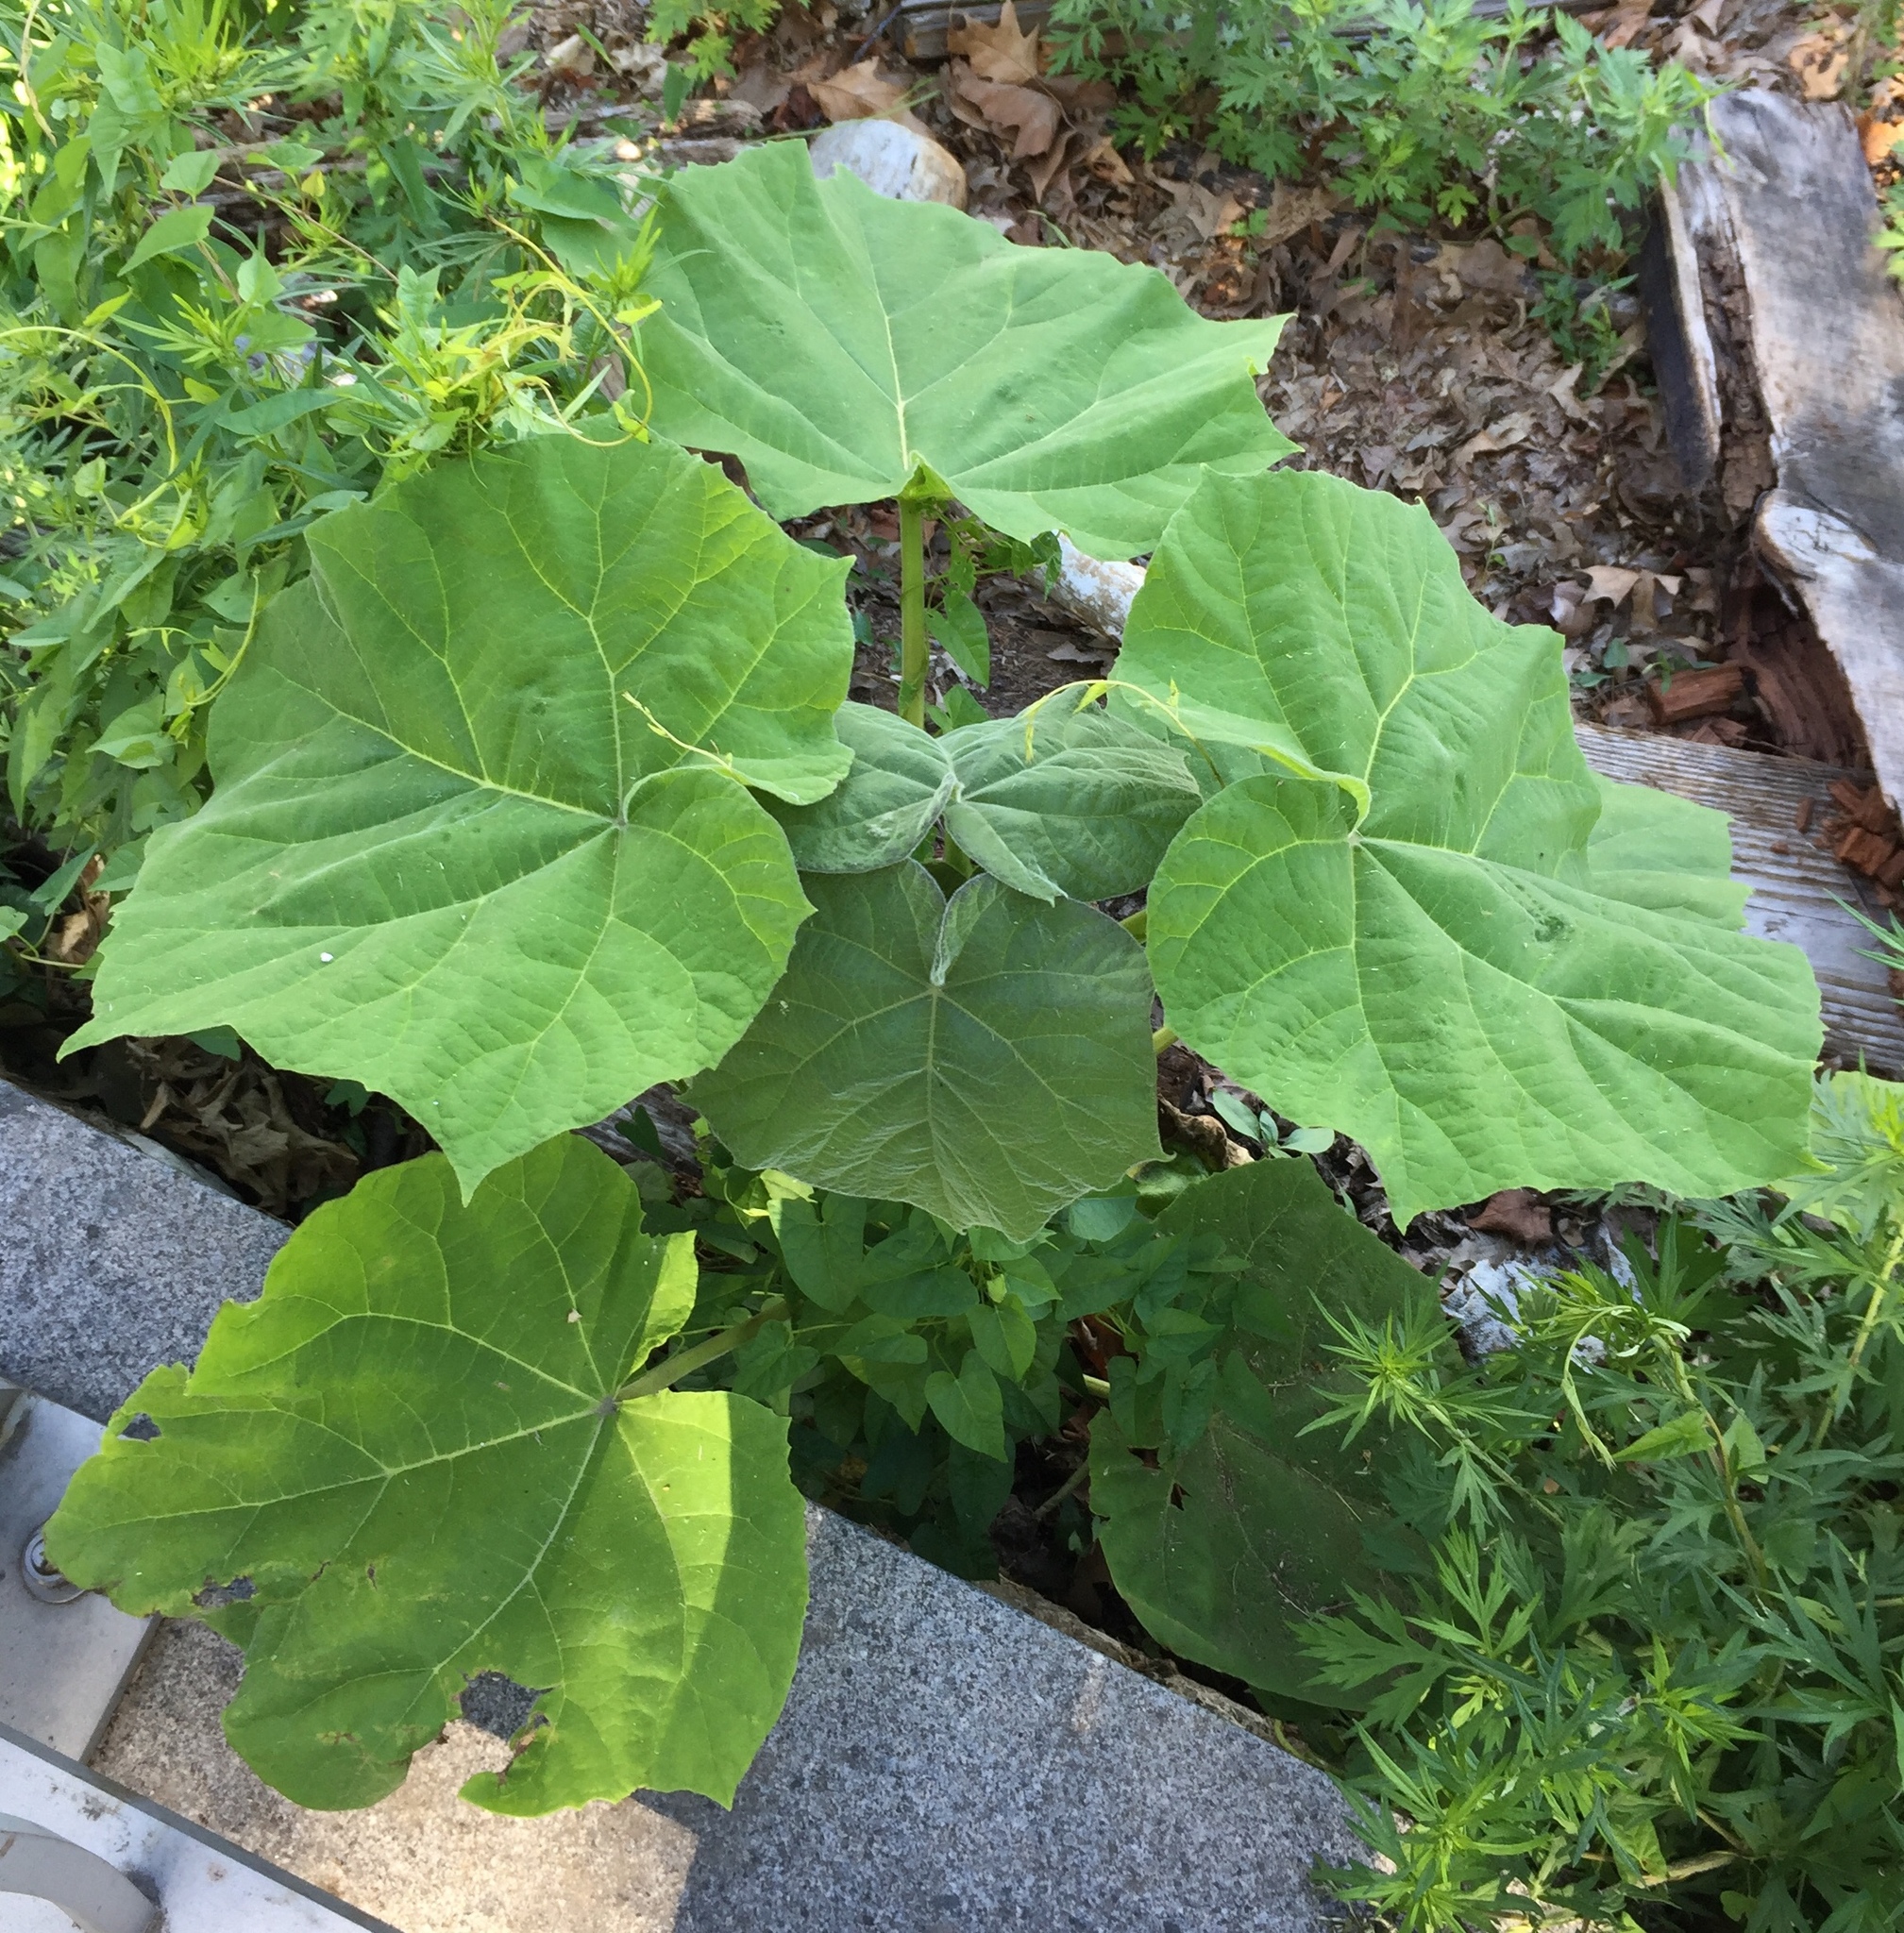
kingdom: Plantae
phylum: Tracheophyta
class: Magnoliopsida
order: Lamiales
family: Paulowniaceae
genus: Paulownia
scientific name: Paulownia tomentosa
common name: Foxglove-tree
